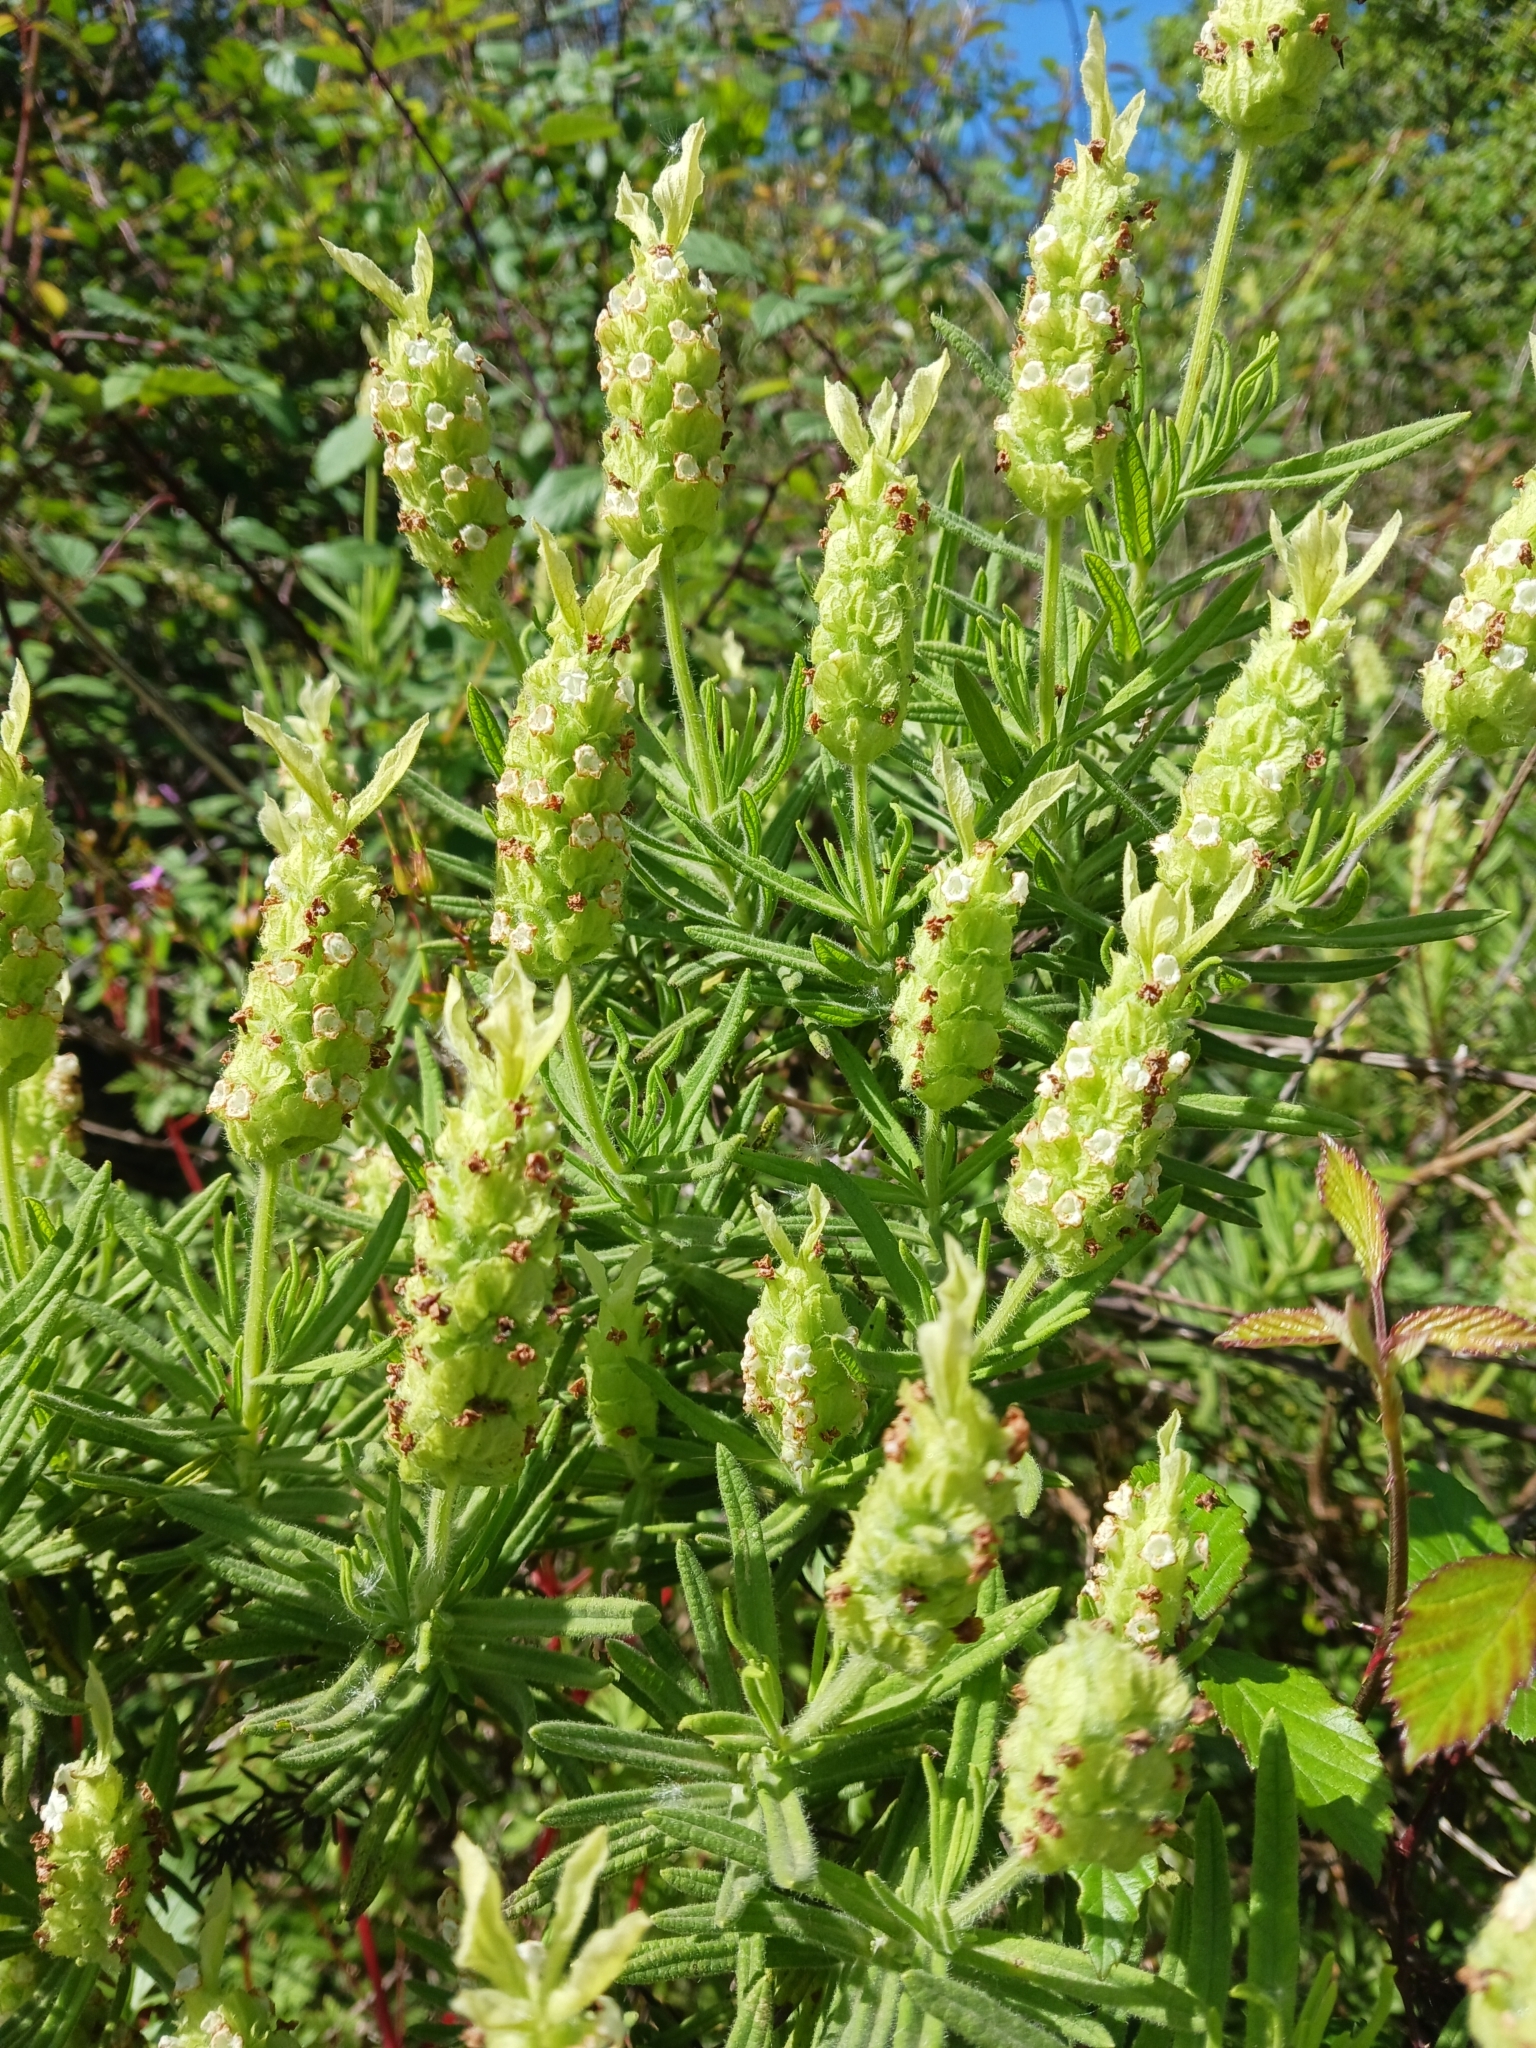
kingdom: Plantae
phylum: Tracheophyta
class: Magnoliopsida
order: Lamiales
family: Lamiaceae
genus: Lavandula
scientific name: Lavandula viridis
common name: Green spanish lavender
